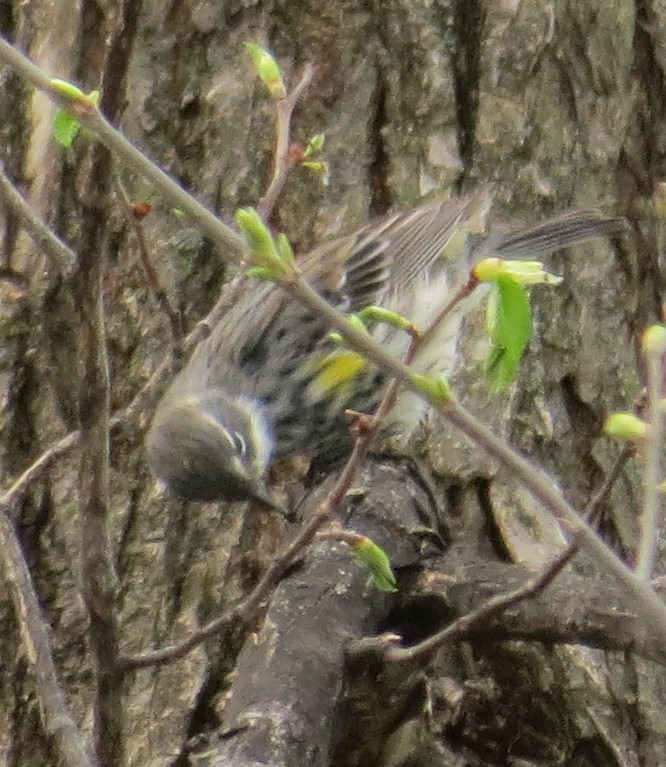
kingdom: Animalia
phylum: Chordata
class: Aves
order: Passeriformes
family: Parulidae
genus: Setophaga
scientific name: Setophaga coronata
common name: Myrtle warbler
